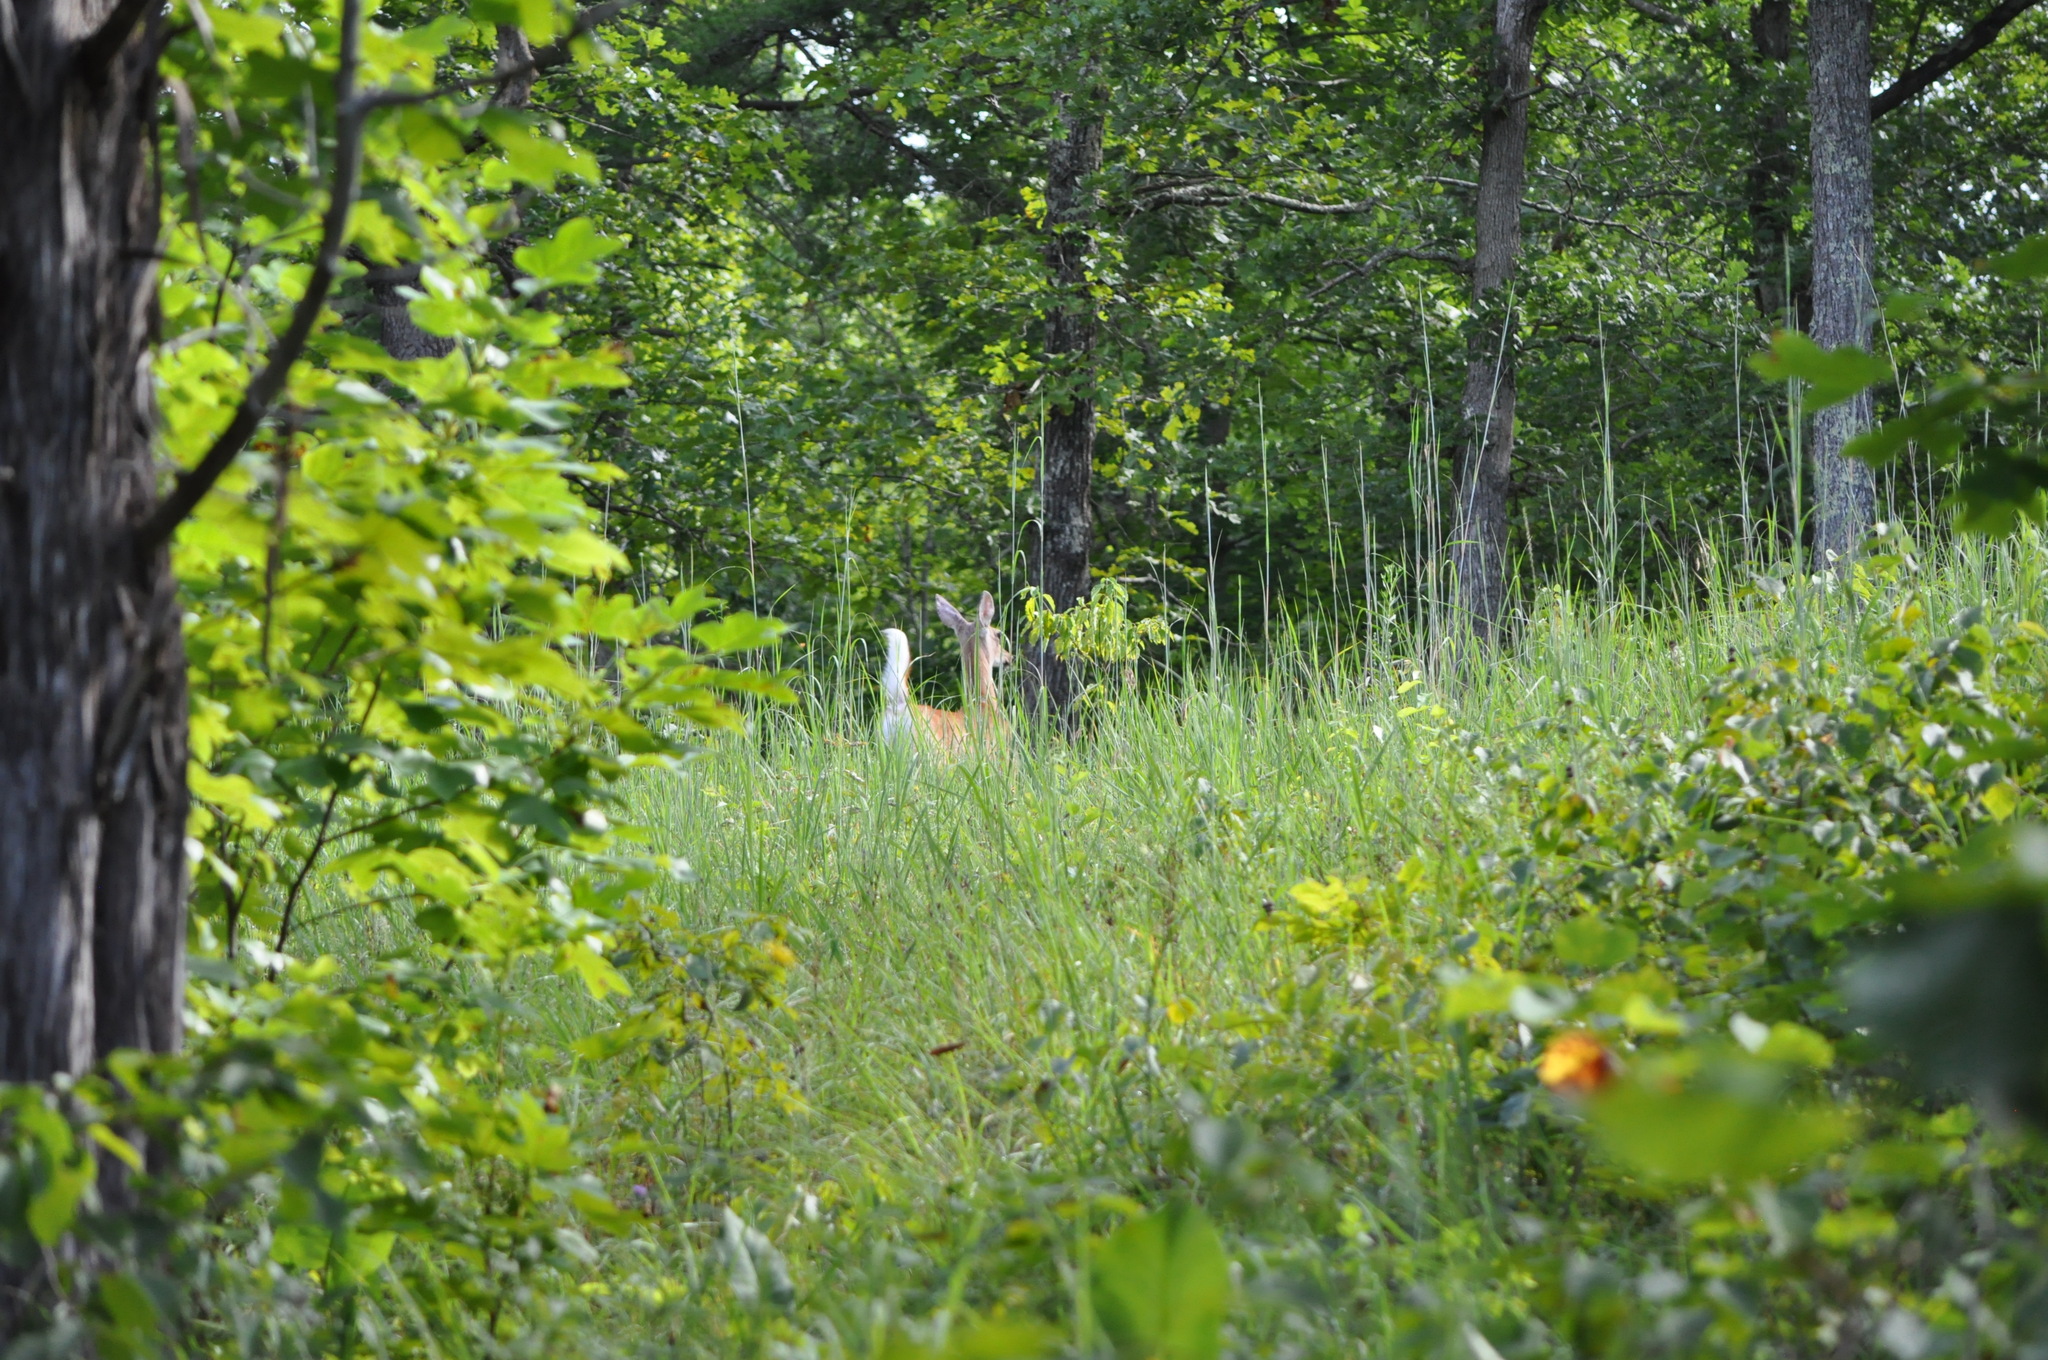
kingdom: Animalia
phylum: Chordata
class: Mammalia
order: Artiodactyla
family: Cervidae
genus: Odocoileus
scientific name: Odocoileus virginianus
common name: White-tailed deer
